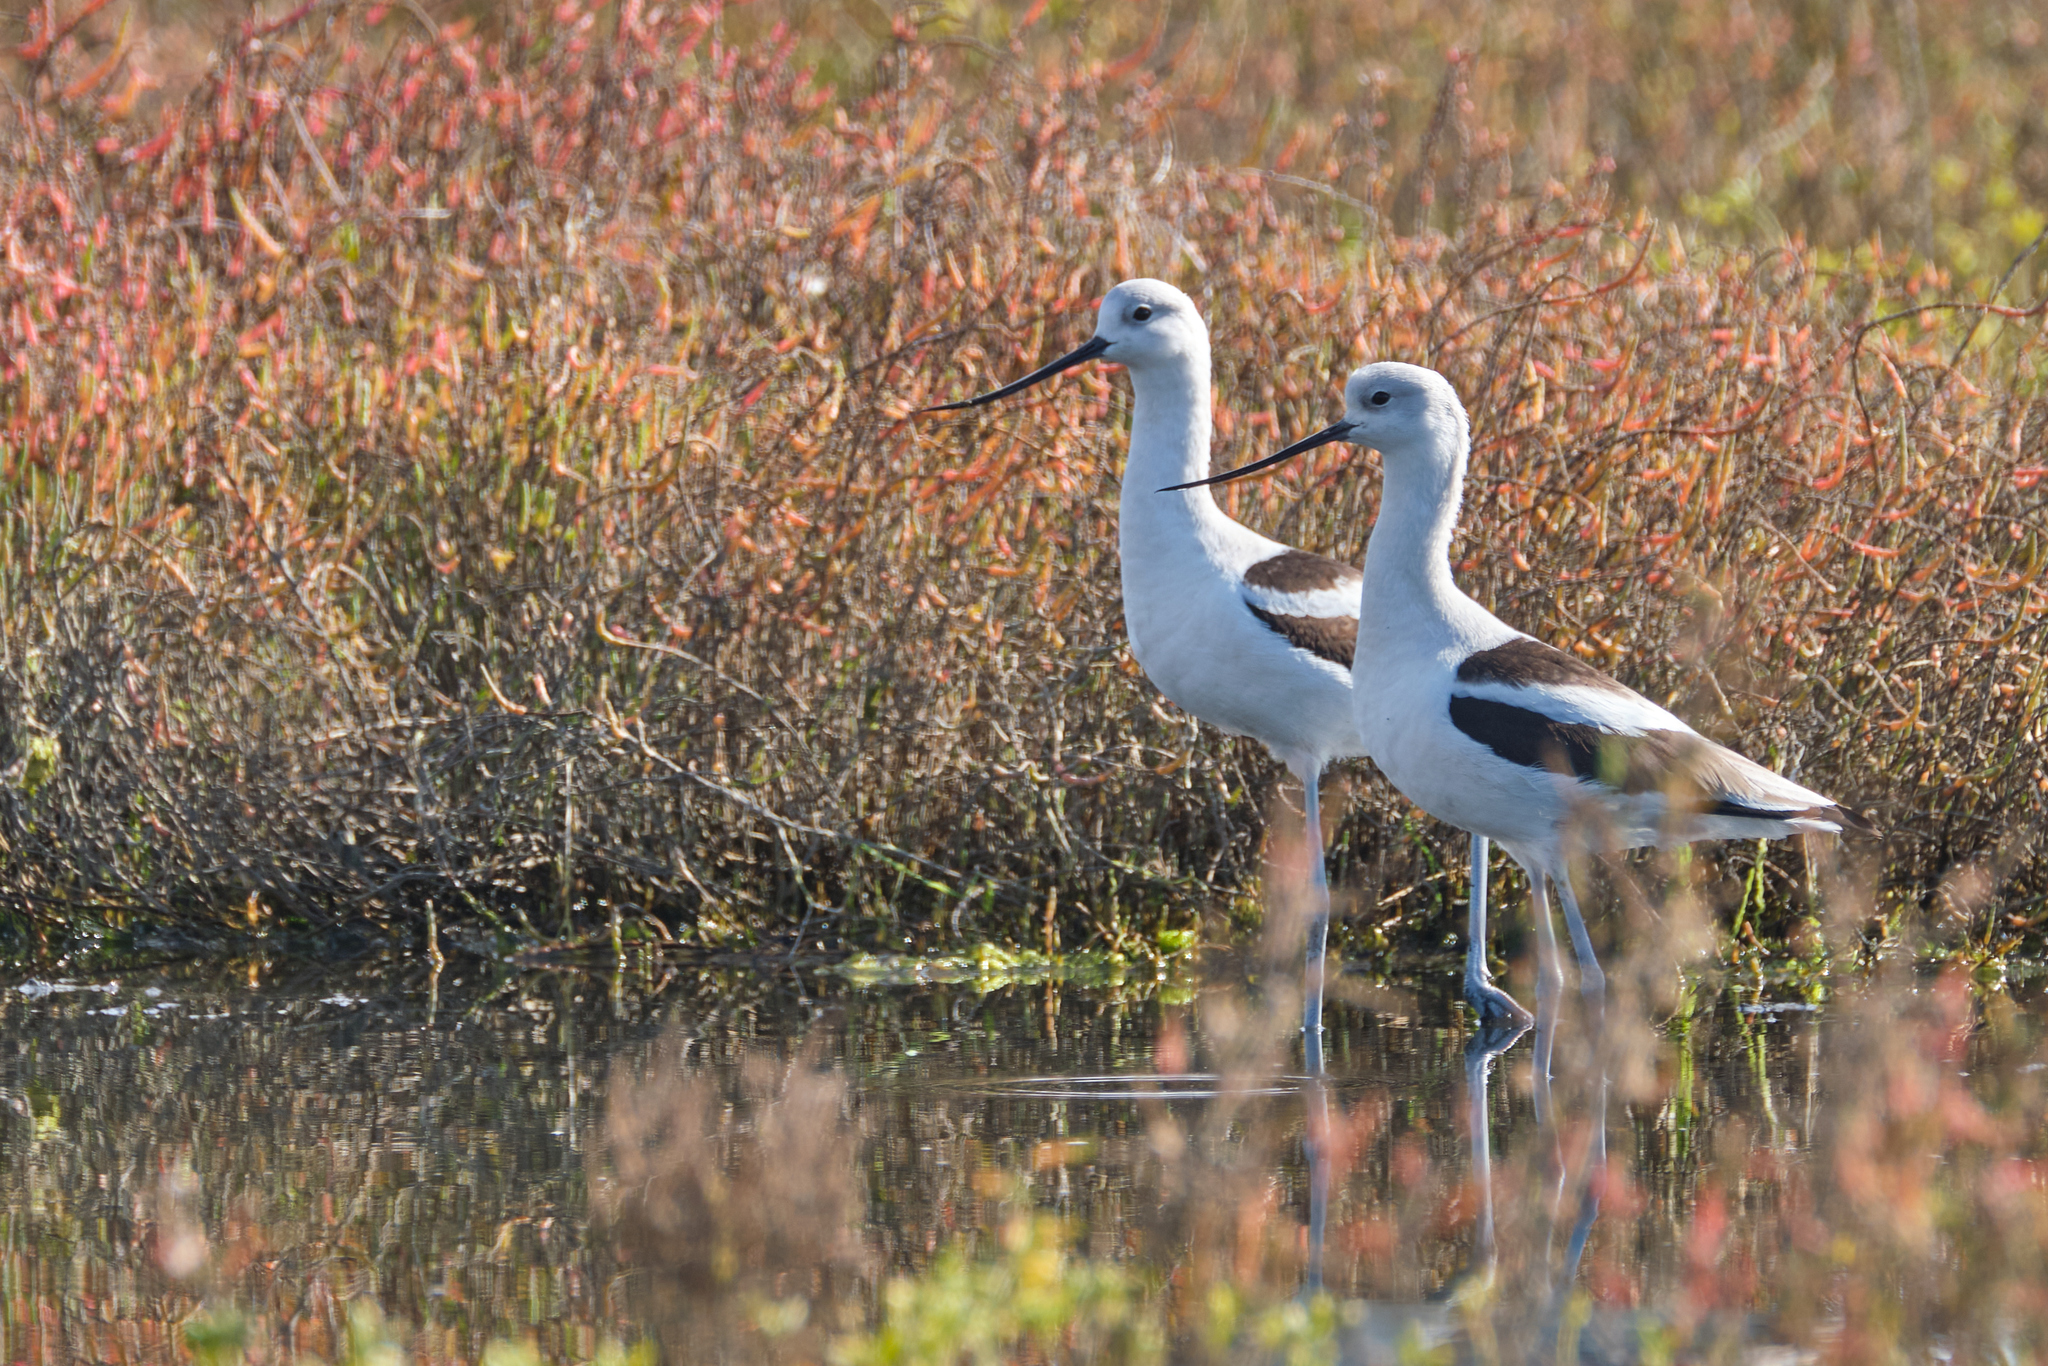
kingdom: Animalia
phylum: Chordata
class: Aves
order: Charadriiformes
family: Recurvirostridae
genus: Recurvirostra
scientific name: Recurvirostra americana
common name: American avocet
